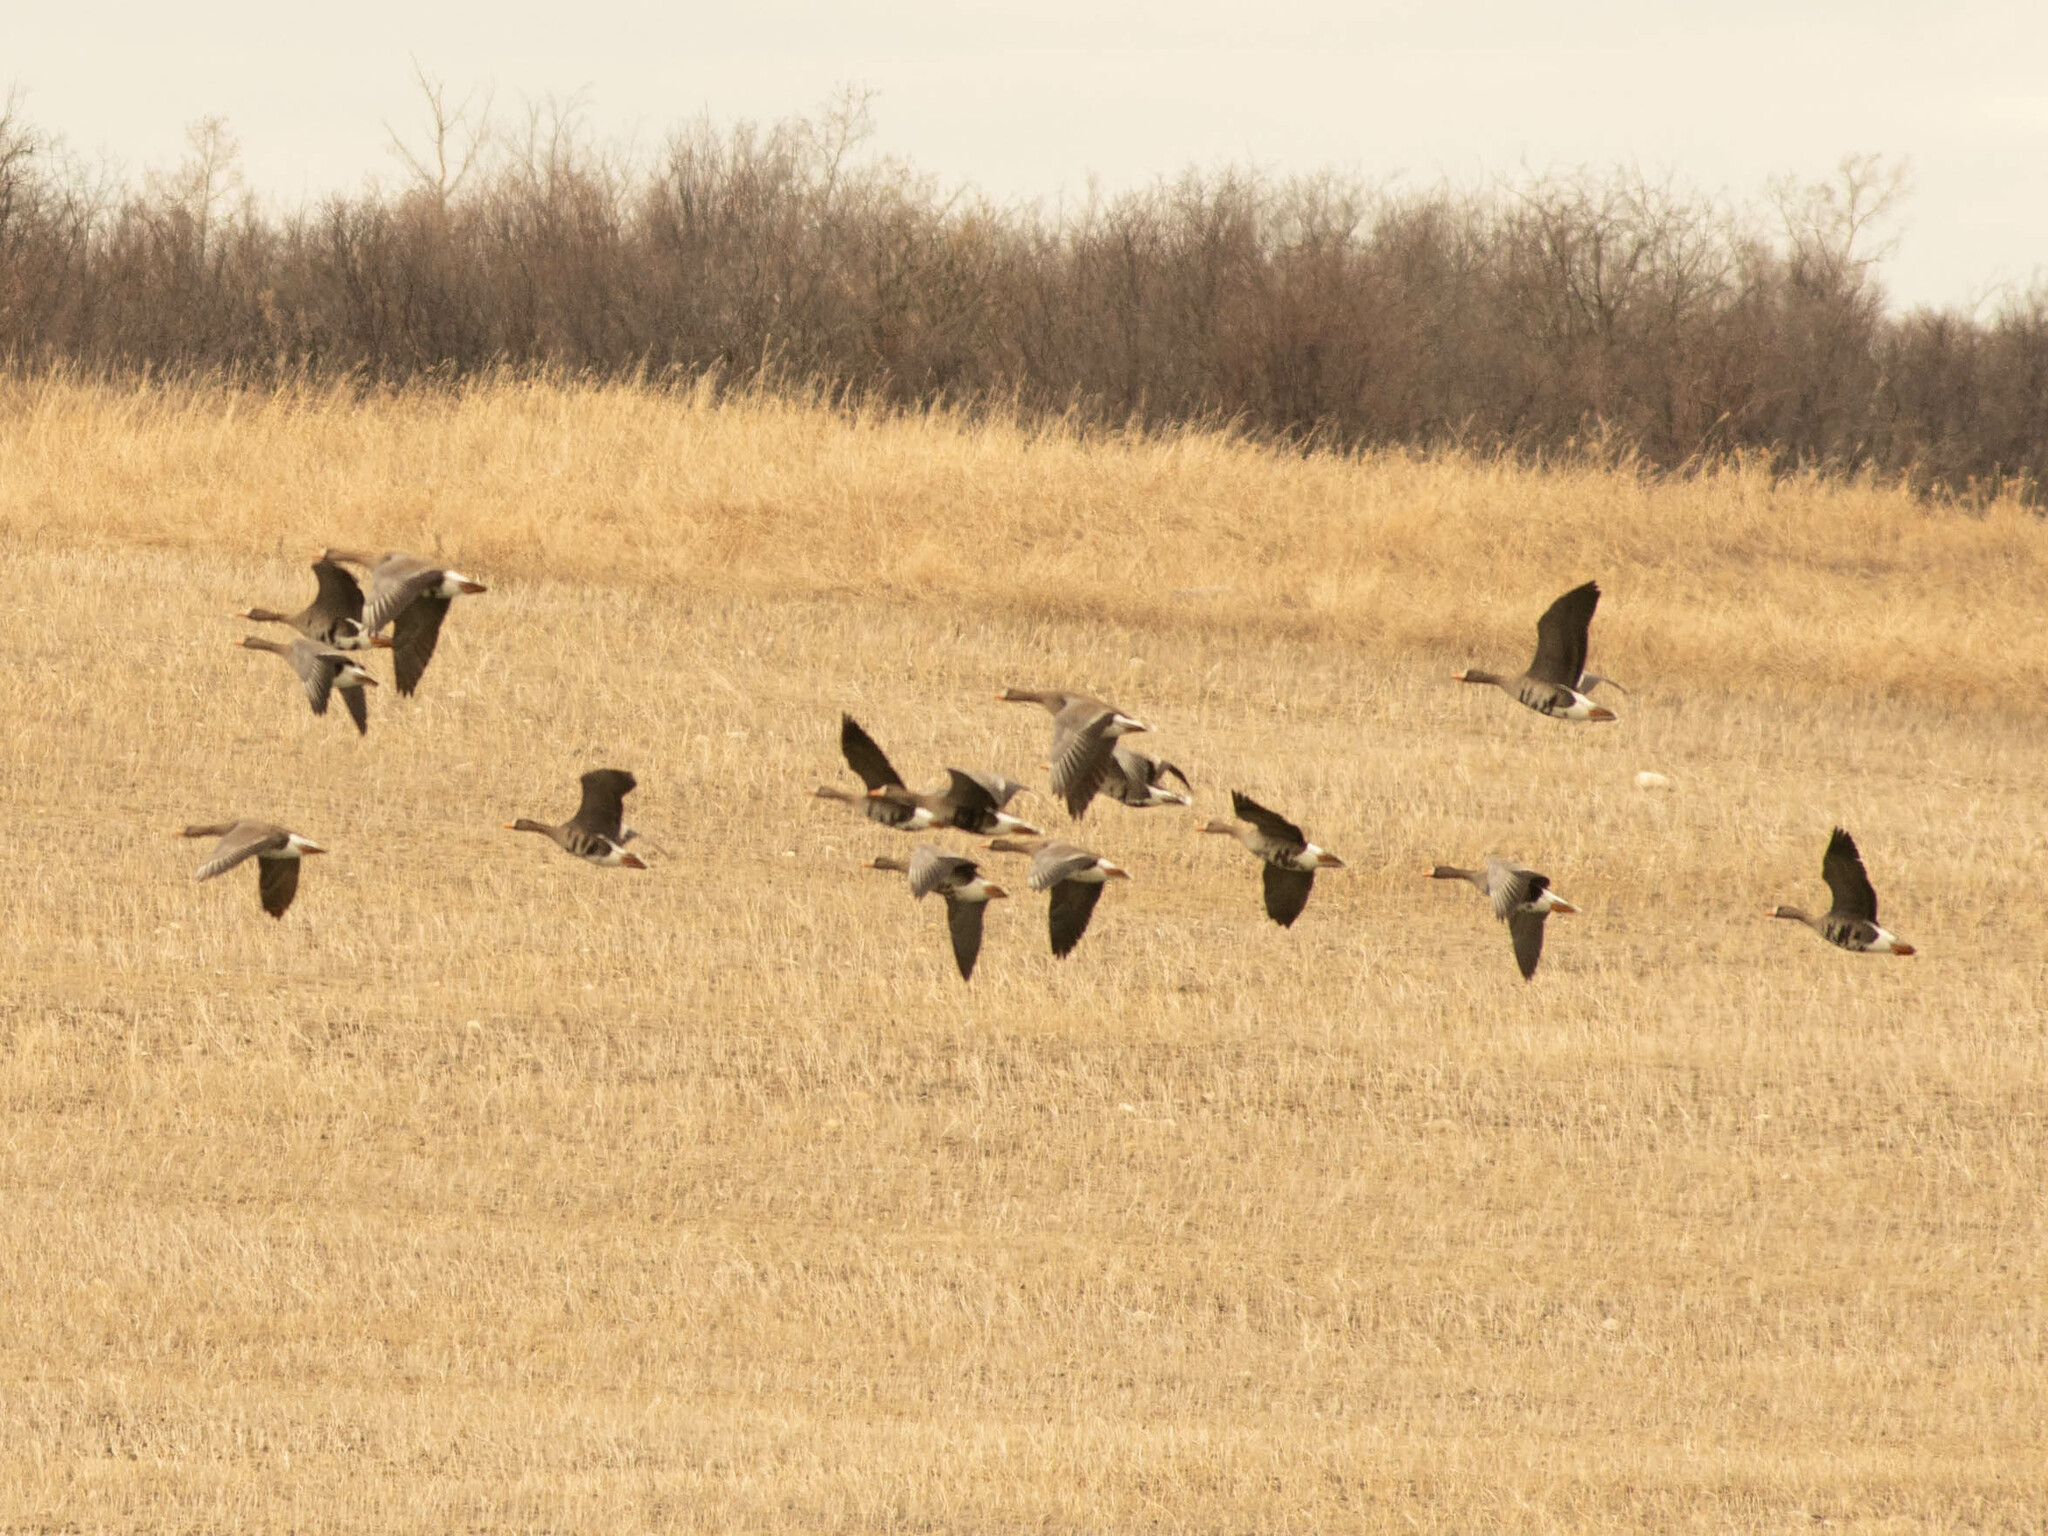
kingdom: Animalia
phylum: Chordata
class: Aves
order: Anseriformes
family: Anatidae
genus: Anser
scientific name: Anser albifrons
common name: Greater white-fronted goose
